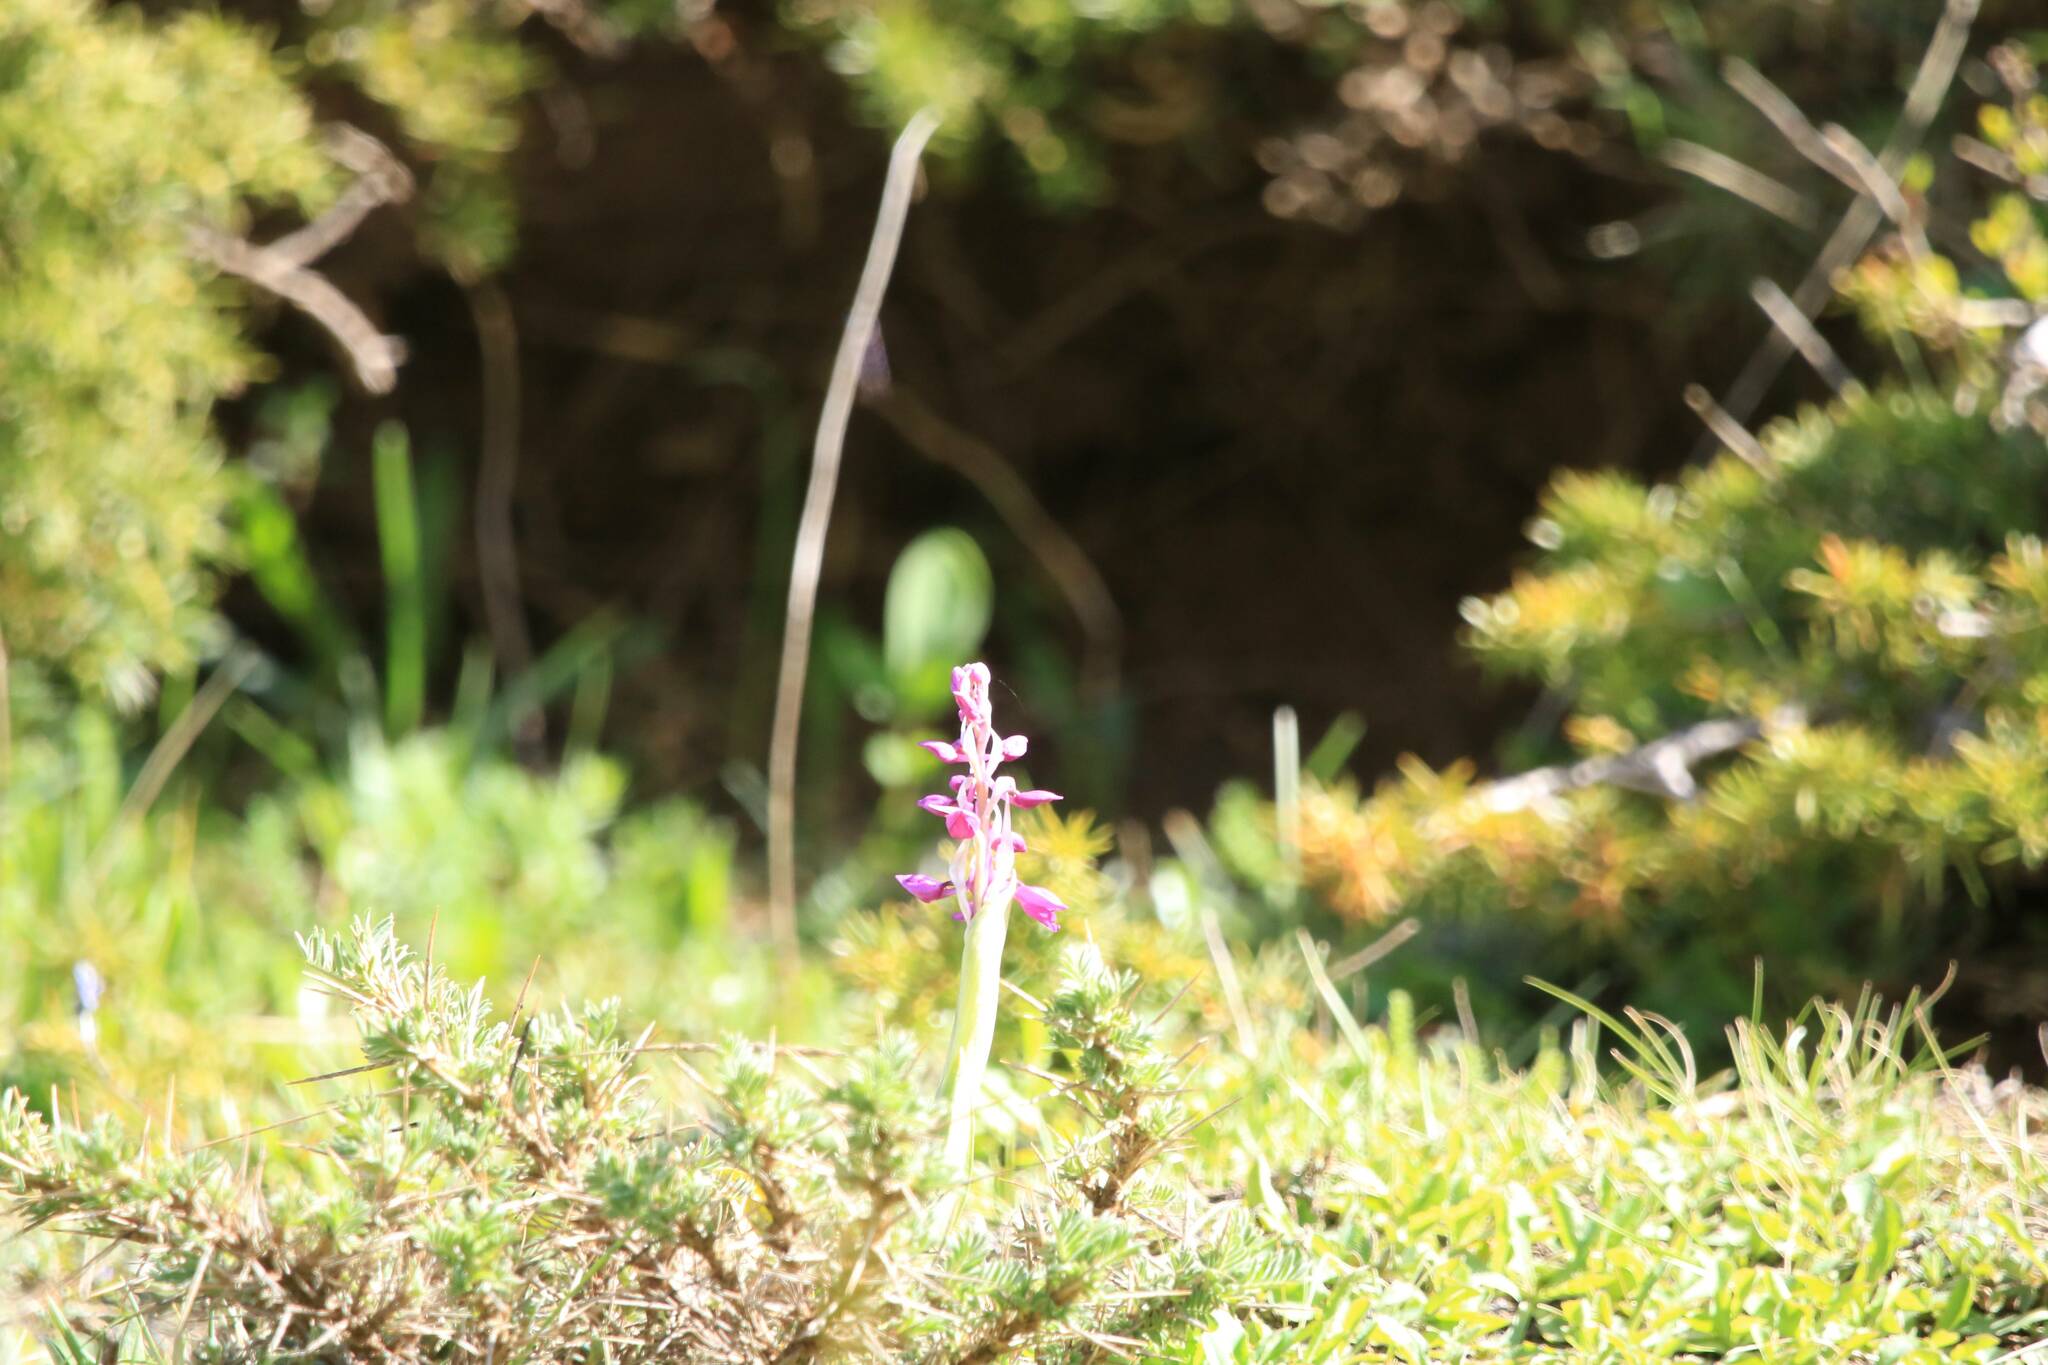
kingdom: Plantae
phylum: Tracheophyta
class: Liliopsida
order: Asparagales
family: Orchidaceae
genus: Orchis
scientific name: Orchis mascula
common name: Early-purple orchid
